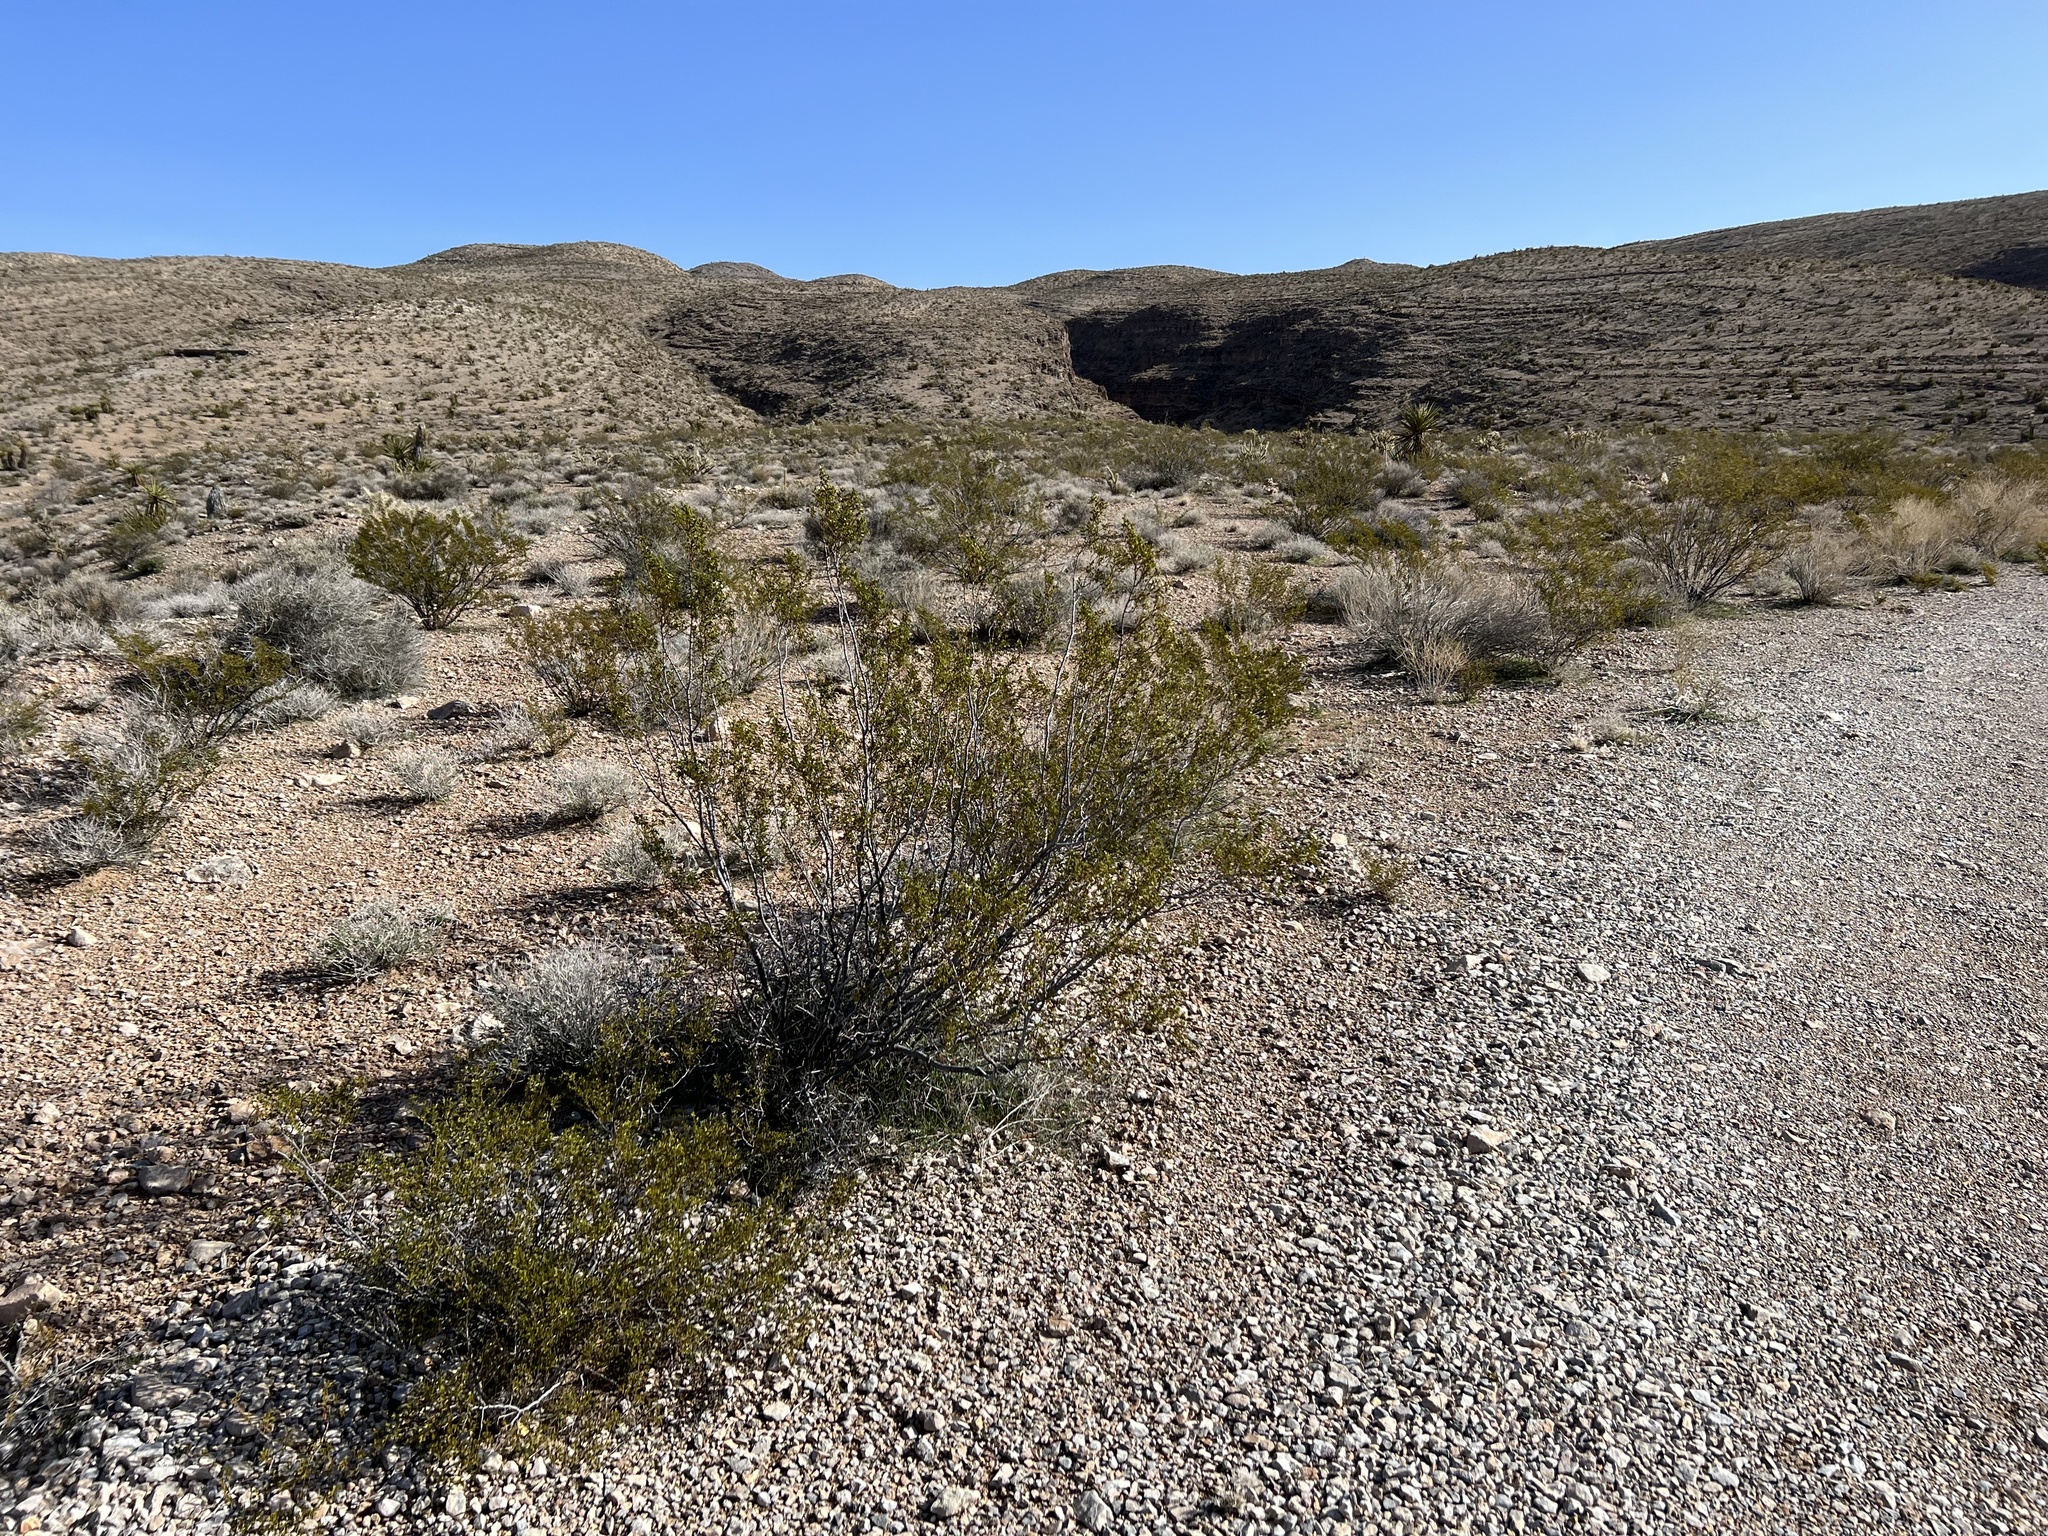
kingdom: Plantae
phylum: Tracheophyta
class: Magnoliopsida
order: Zygophyllales
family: Zygophyllaceae
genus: Larrea
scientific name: Larrea tridentata
